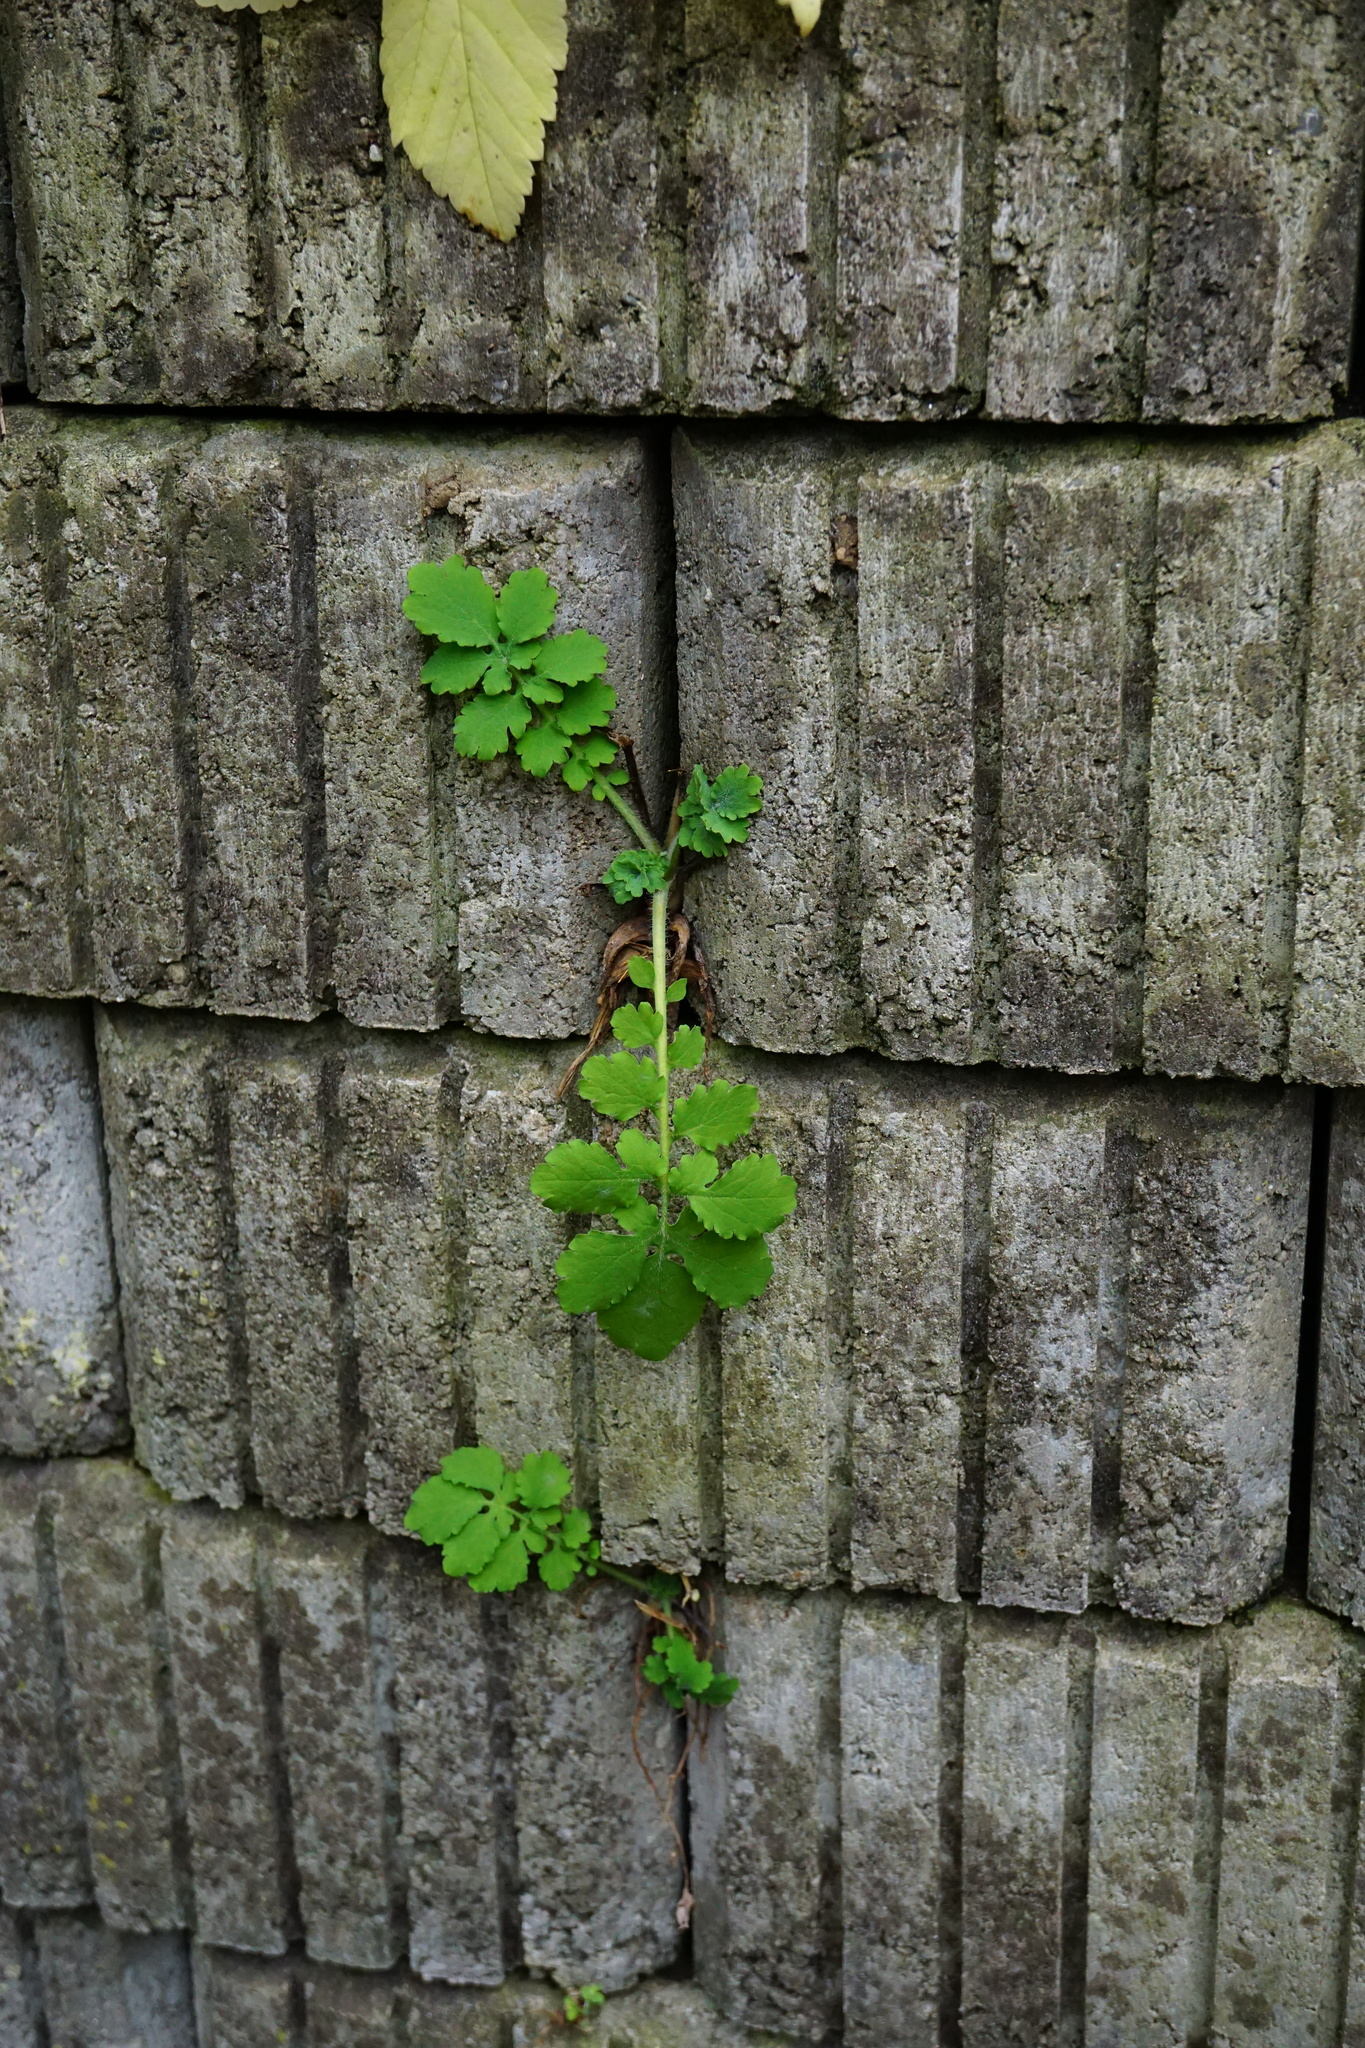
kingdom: Plantae
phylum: Tracheophyta
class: Magnoliopsida
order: Ranunculales
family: Papaveraceae
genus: Chelidonium
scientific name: Chelidonium majus
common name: Greater celandine
